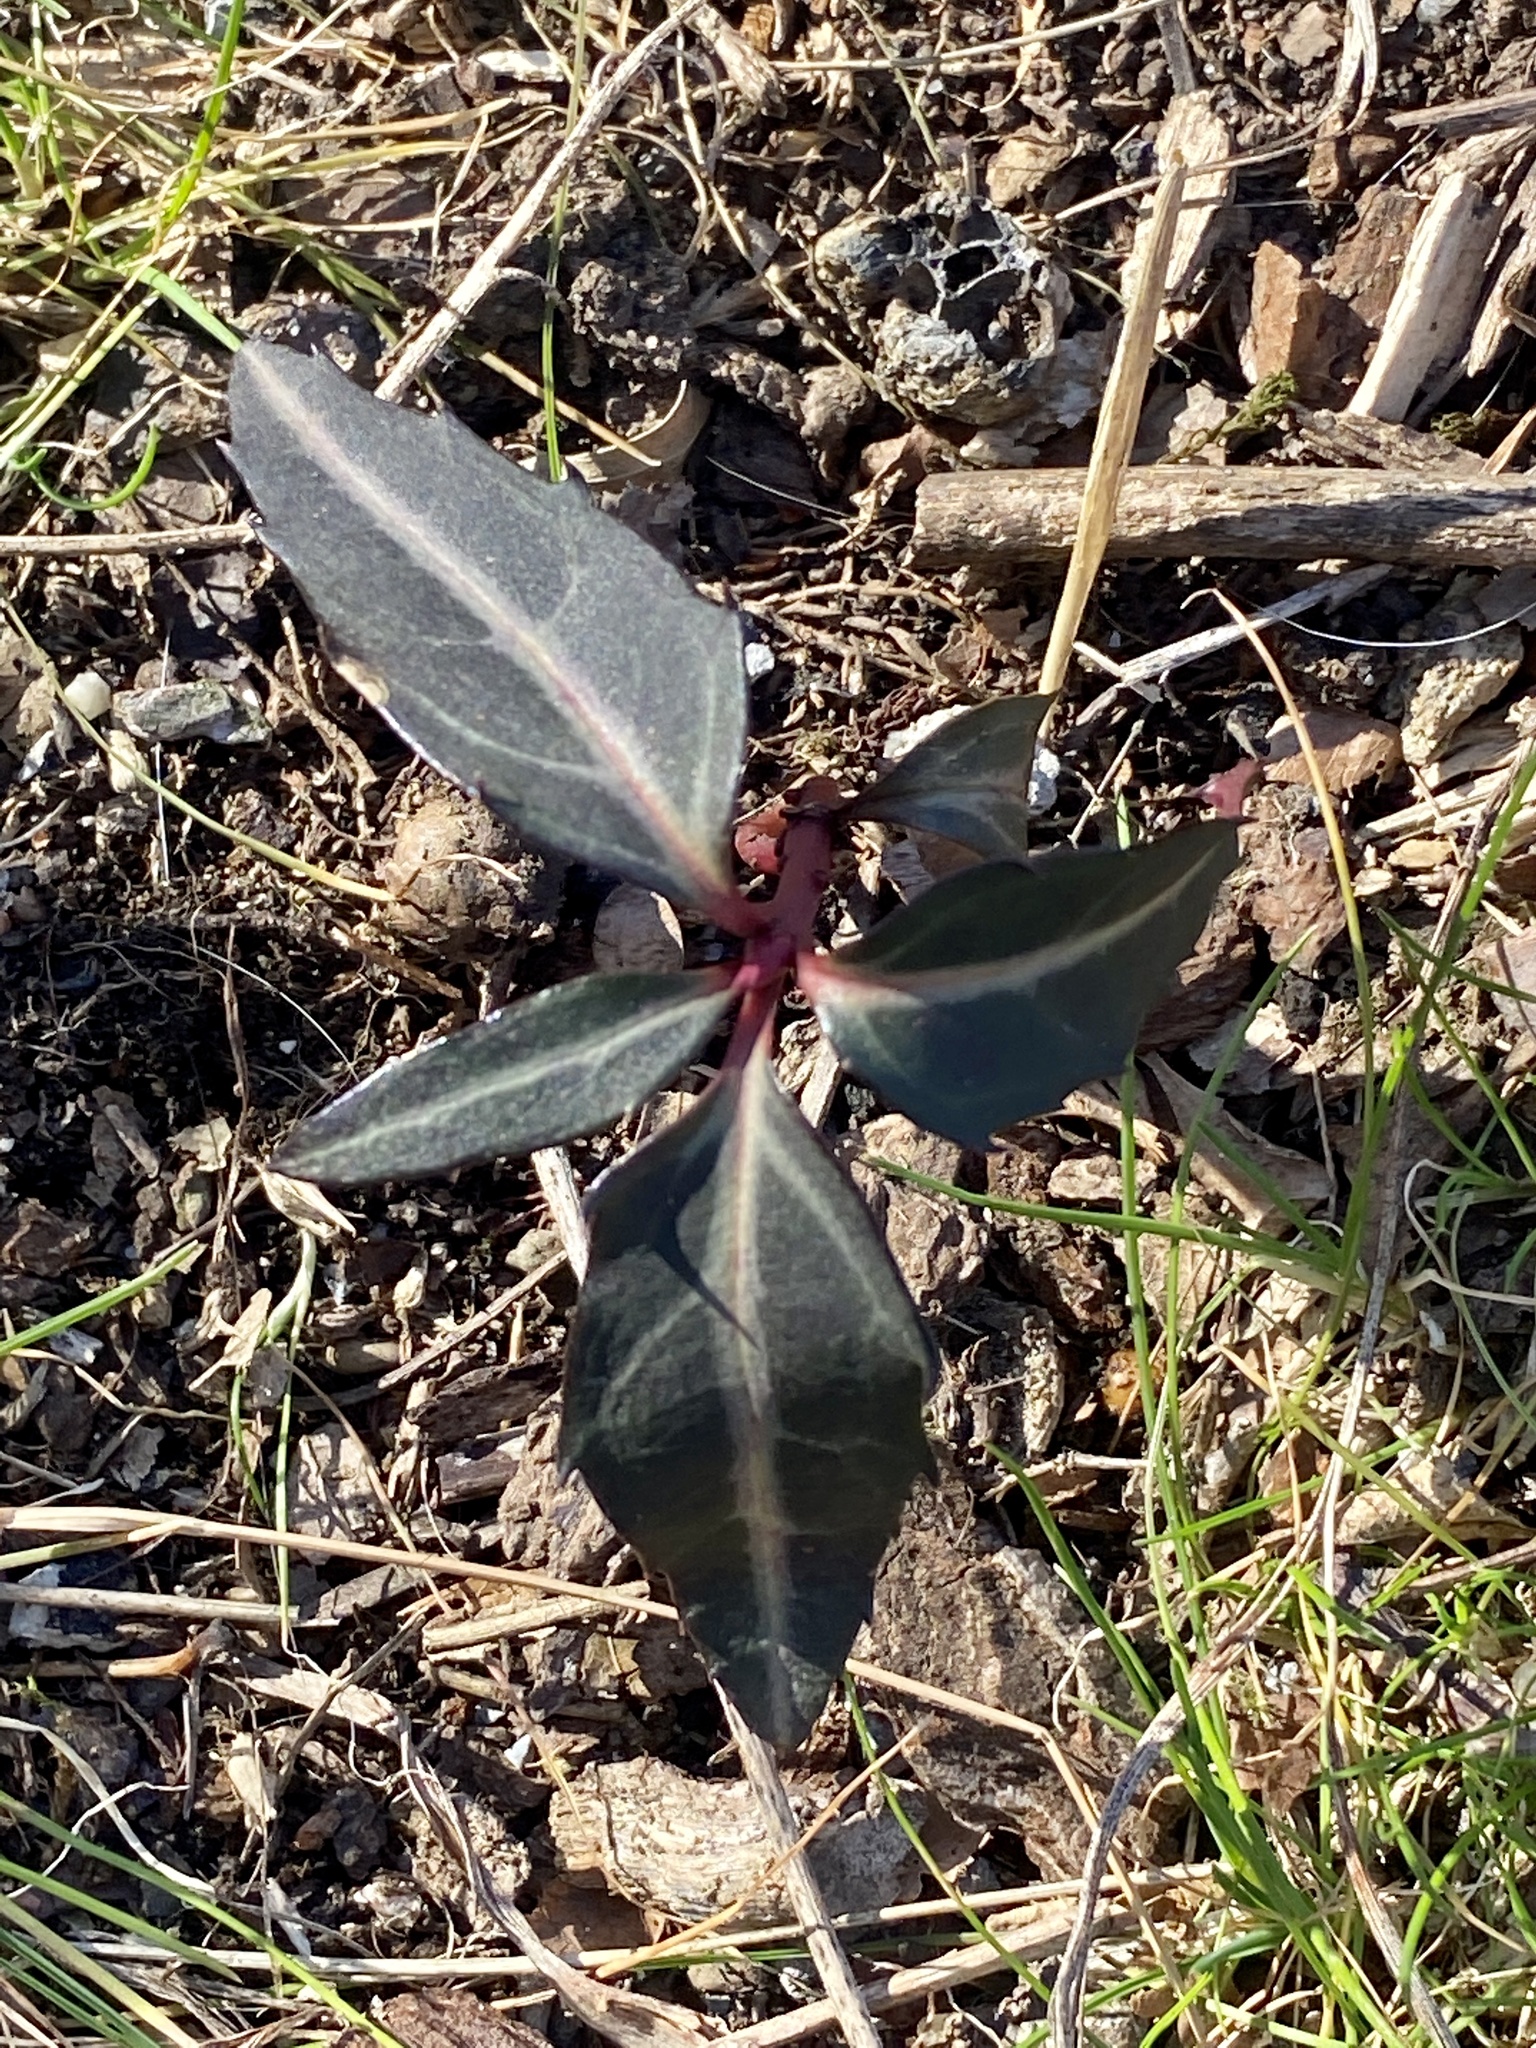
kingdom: Plantae
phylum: Tracheophyta
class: Magnoliopsida
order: Ericales
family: Ericaceae
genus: Chimaphila
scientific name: Chimaphila maculata
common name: Spotted pipsissewa
